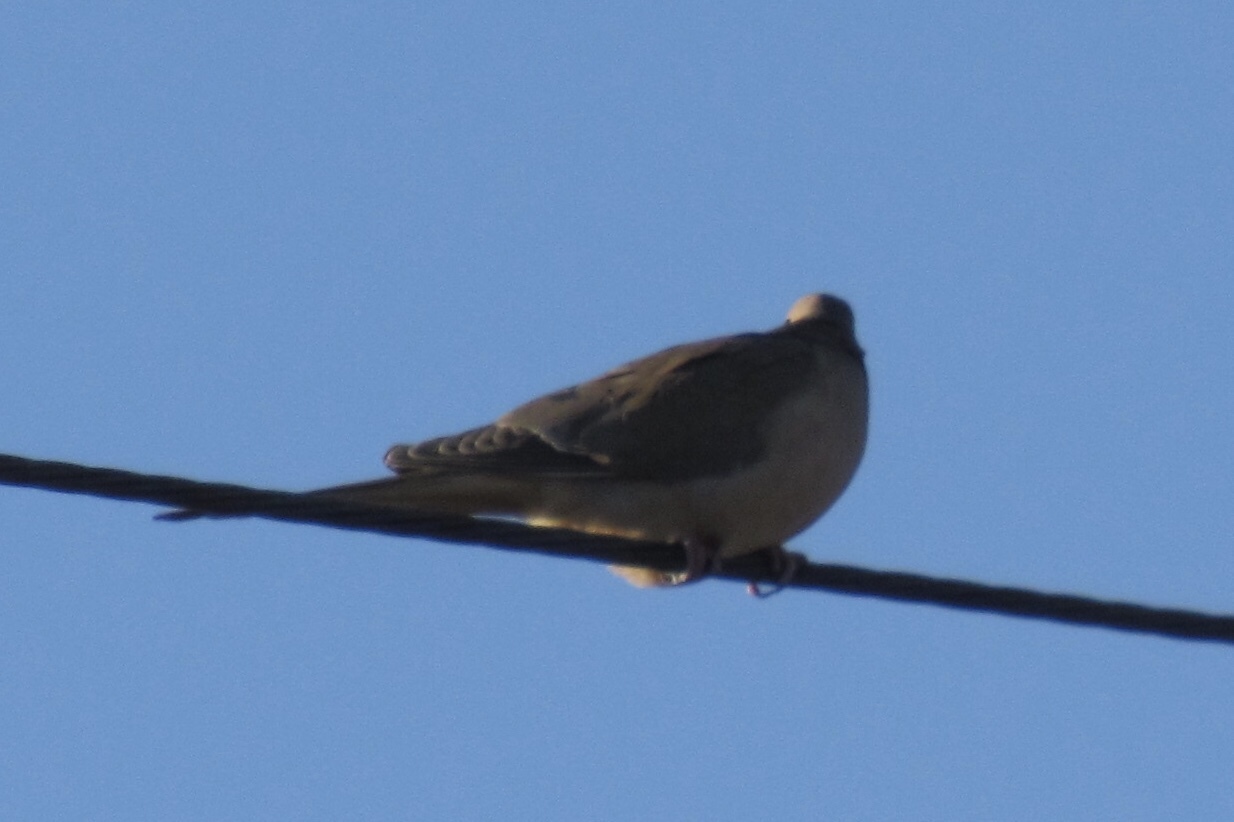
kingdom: Animalia
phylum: Chordata
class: Aves
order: Columbiformes
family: Columbidae
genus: Zenaida
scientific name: Zenaida macroura
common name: Mourning dove
